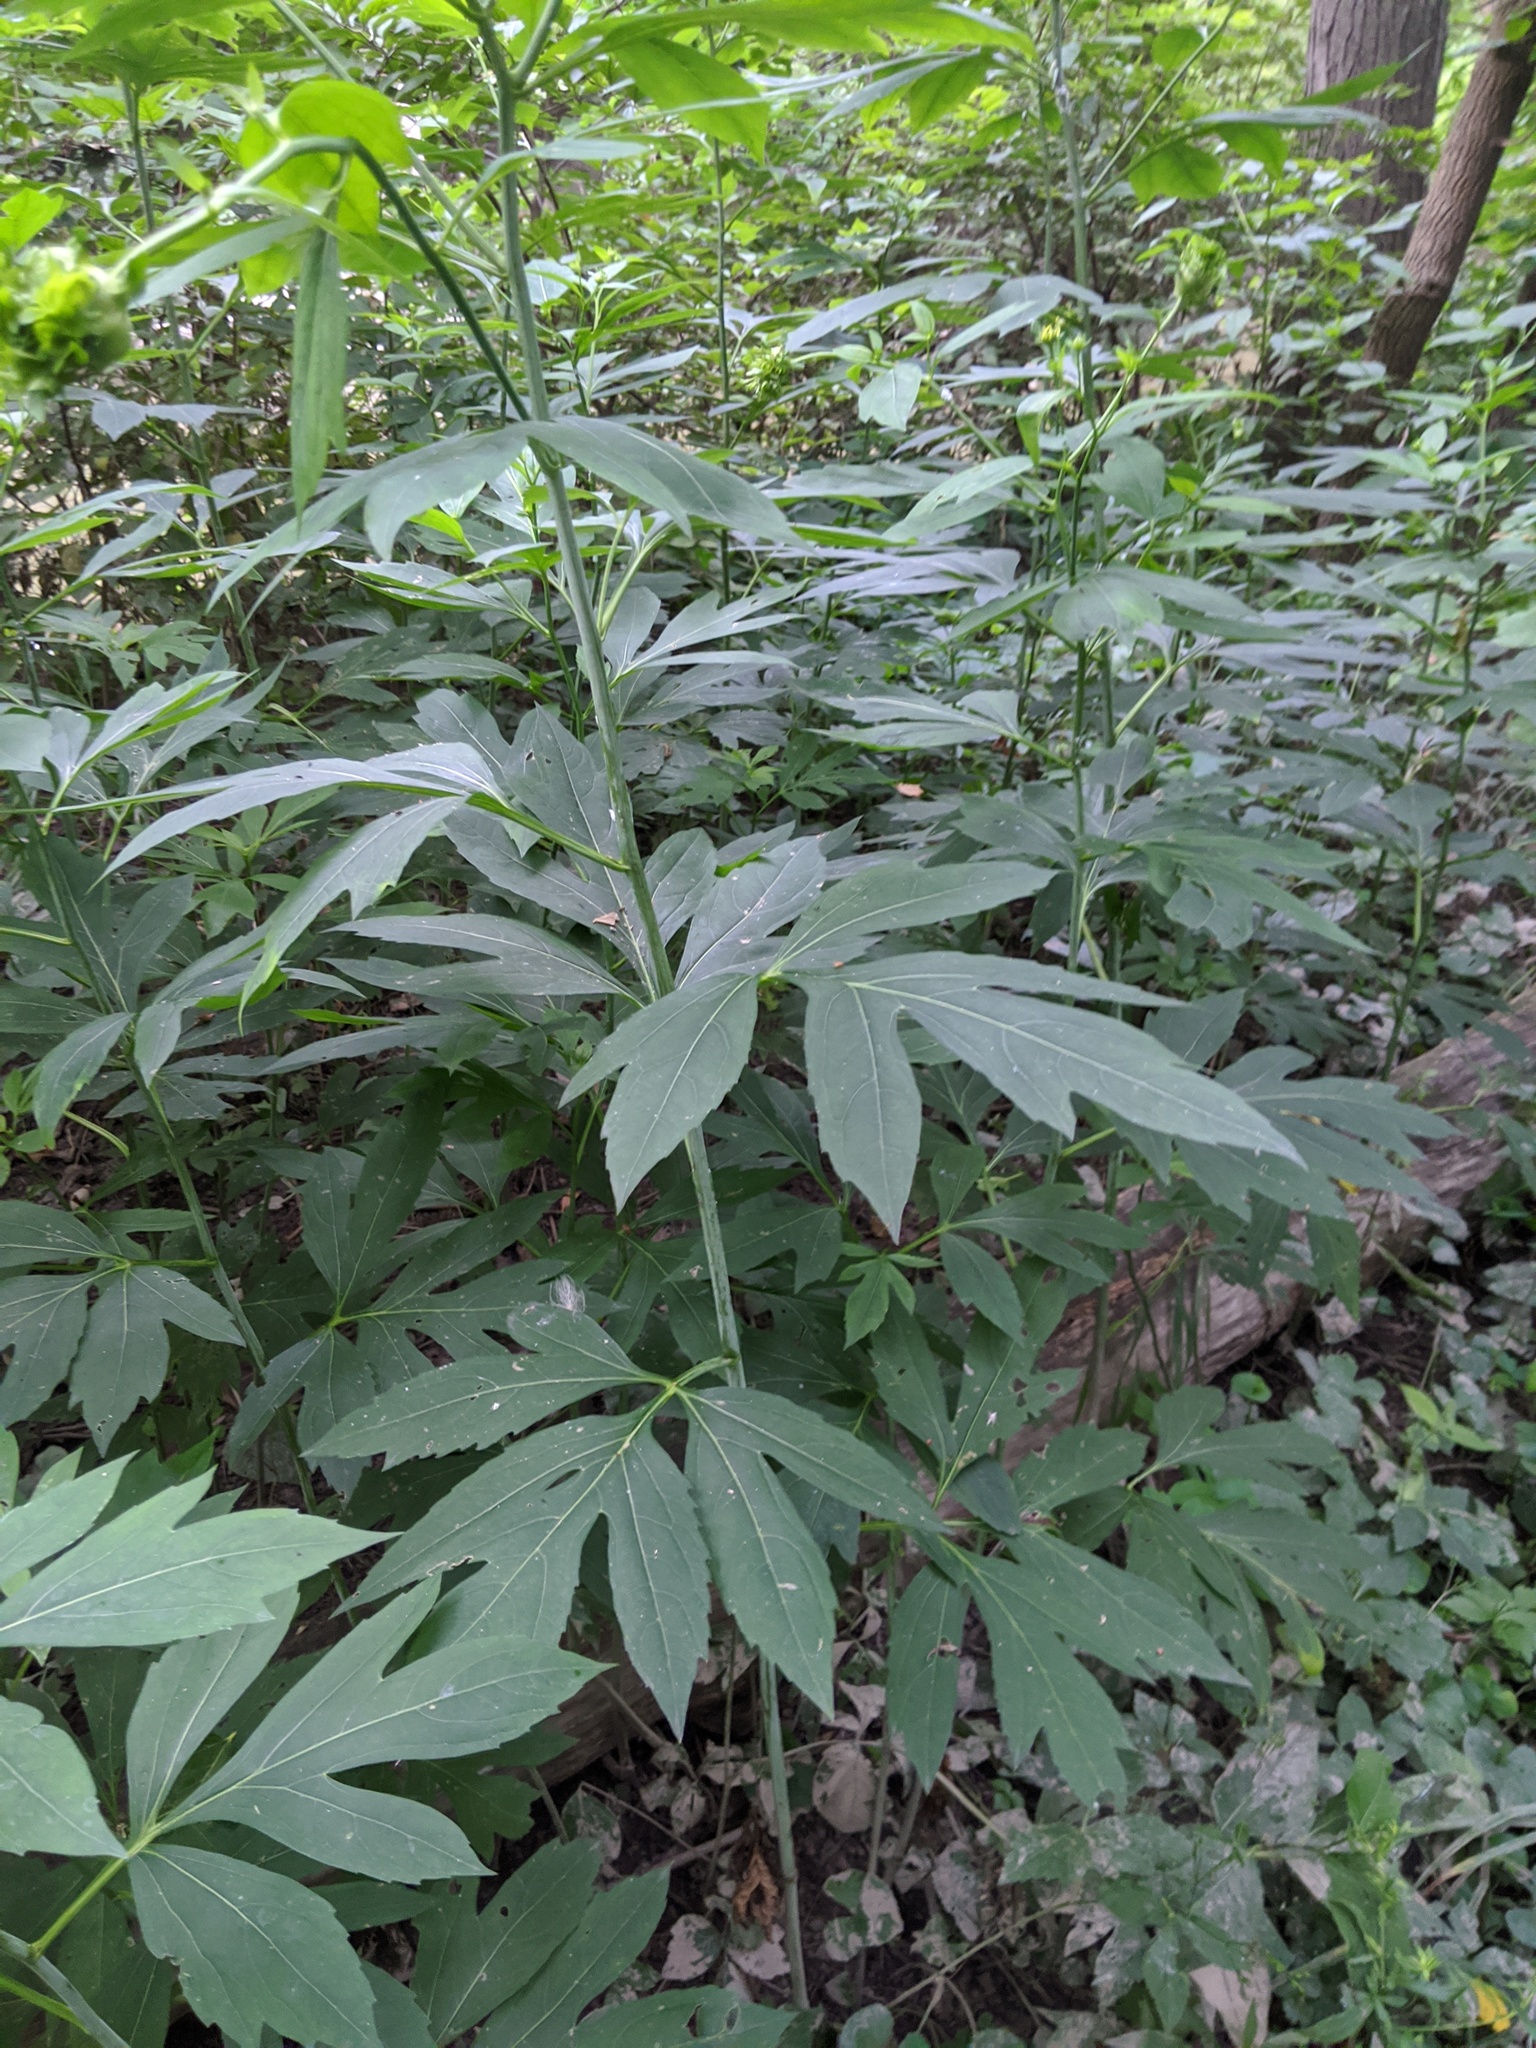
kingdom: Plantae
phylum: Tracheophyta
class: Magnoliopsida
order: Asterales
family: Asteraceae
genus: Rudbeckia
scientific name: Rudbeckia laciniata
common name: Coneflower
